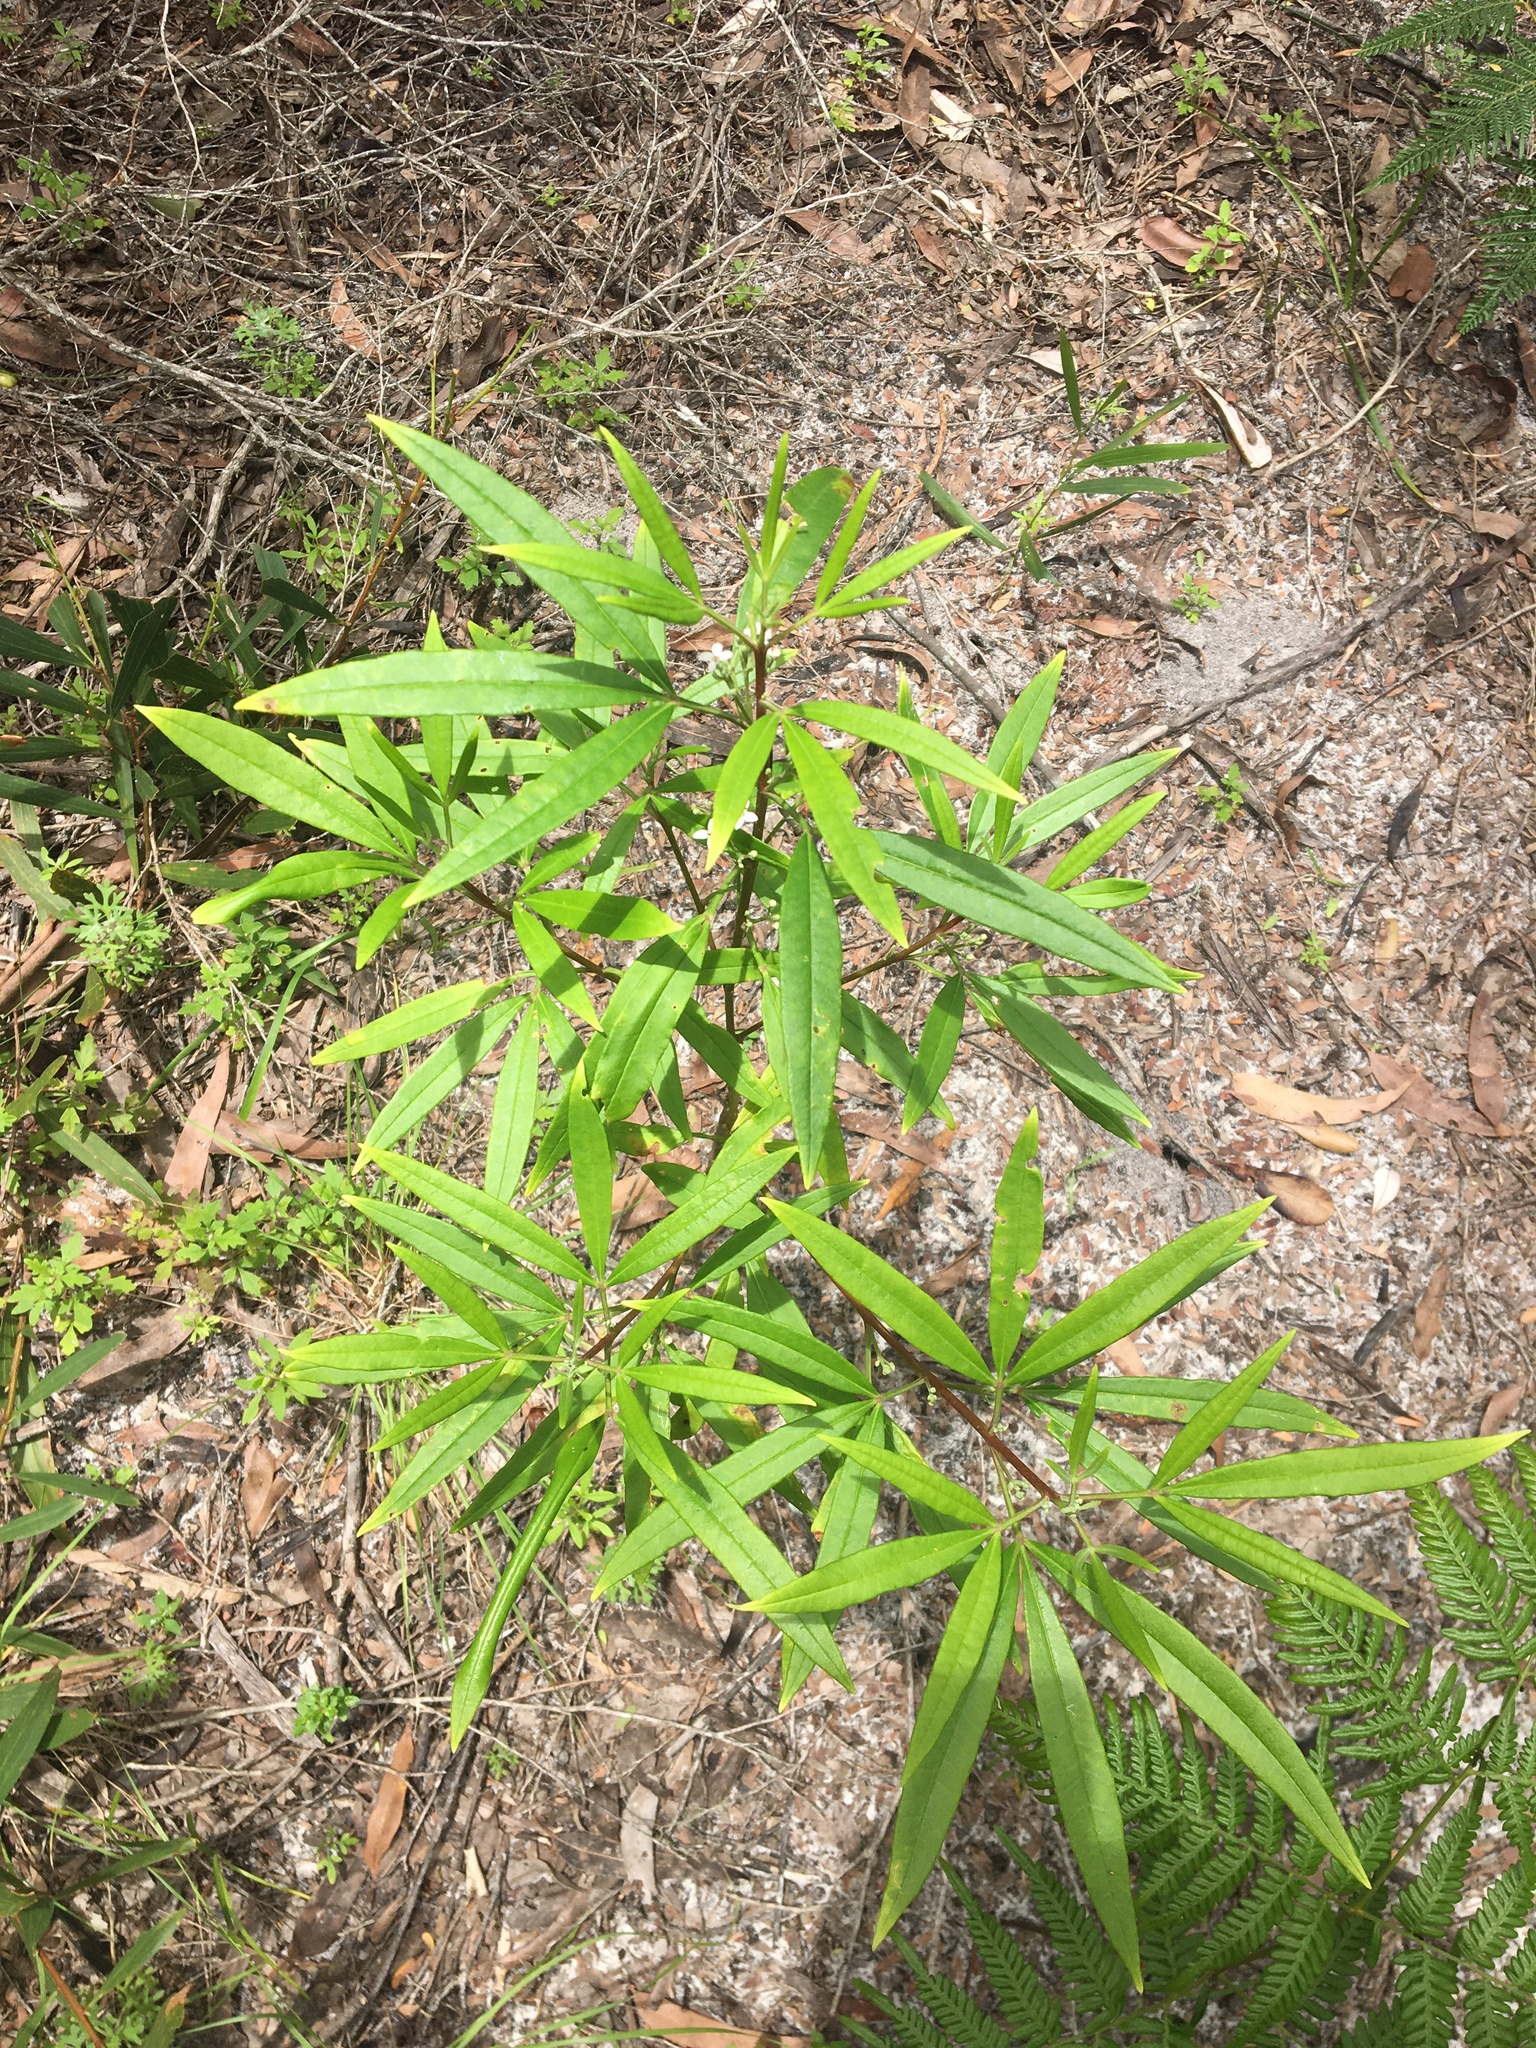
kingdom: Plantae
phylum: Tracheophyta
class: Magnoliopsida
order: Sapindales
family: Rutaceae
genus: Zieria
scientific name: Zieria arborescens
